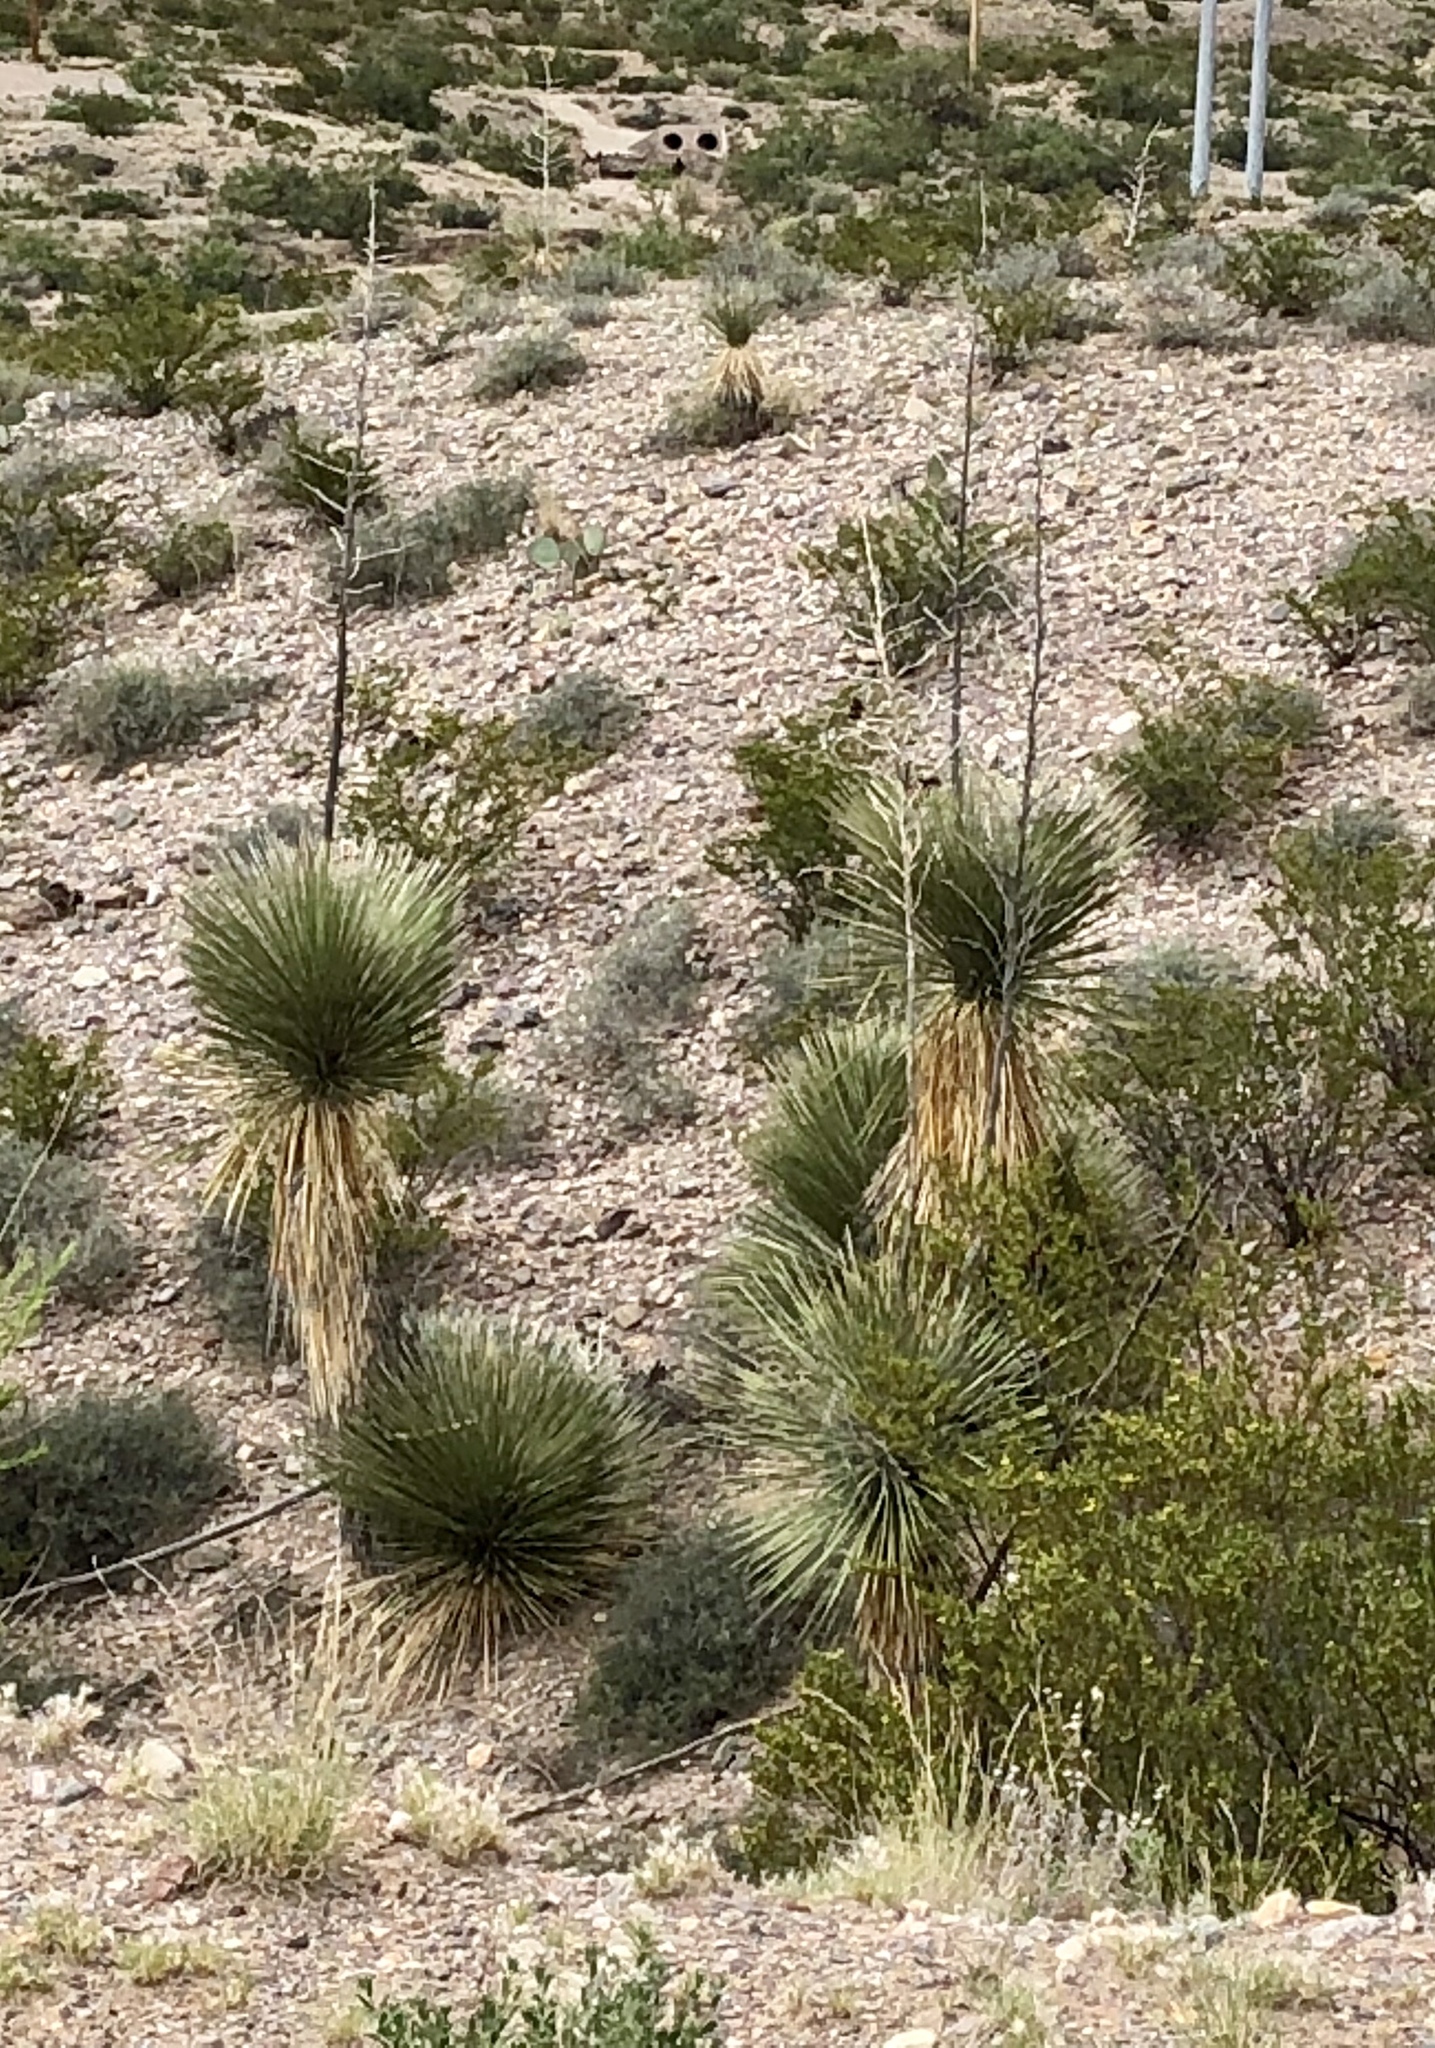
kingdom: Plantae
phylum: Tracheophyta
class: Liliopsida
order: Asparagales
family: Asparagaceae
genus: Yucca
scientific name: Yucca elata
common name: Palmella
